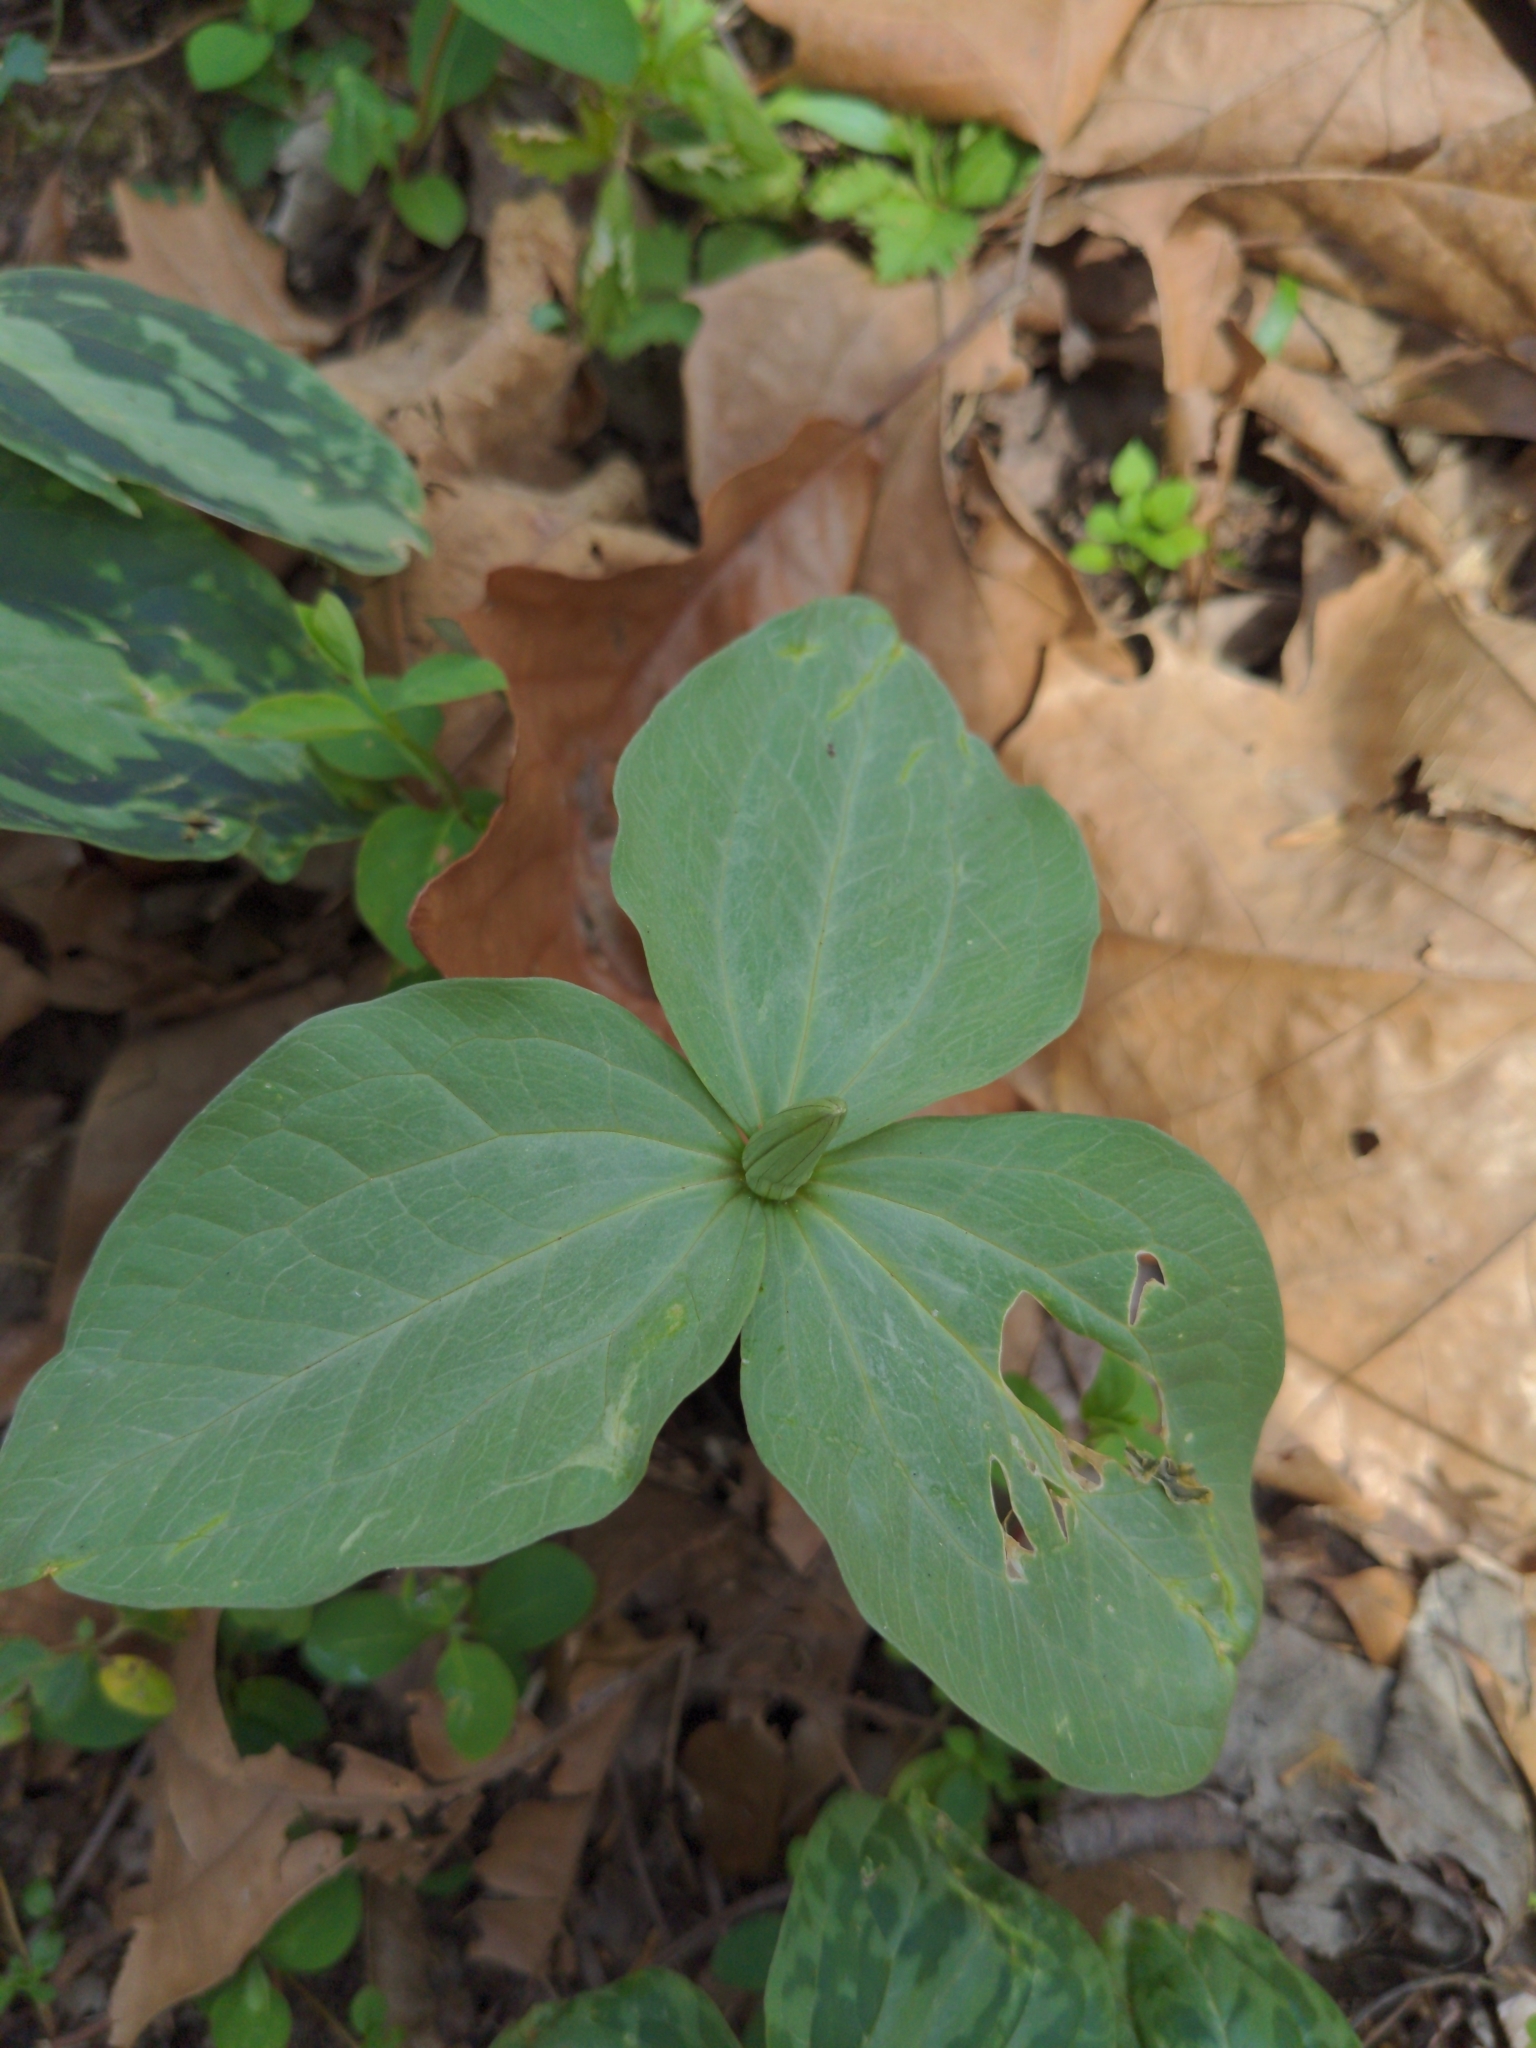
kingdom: Plantae
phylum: Tracheophyta
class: Liliopsida
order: Liliales
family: Melanthiaceae
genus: Trillium
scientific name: Trillium foetidissimum
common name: Mississippi river trillium
